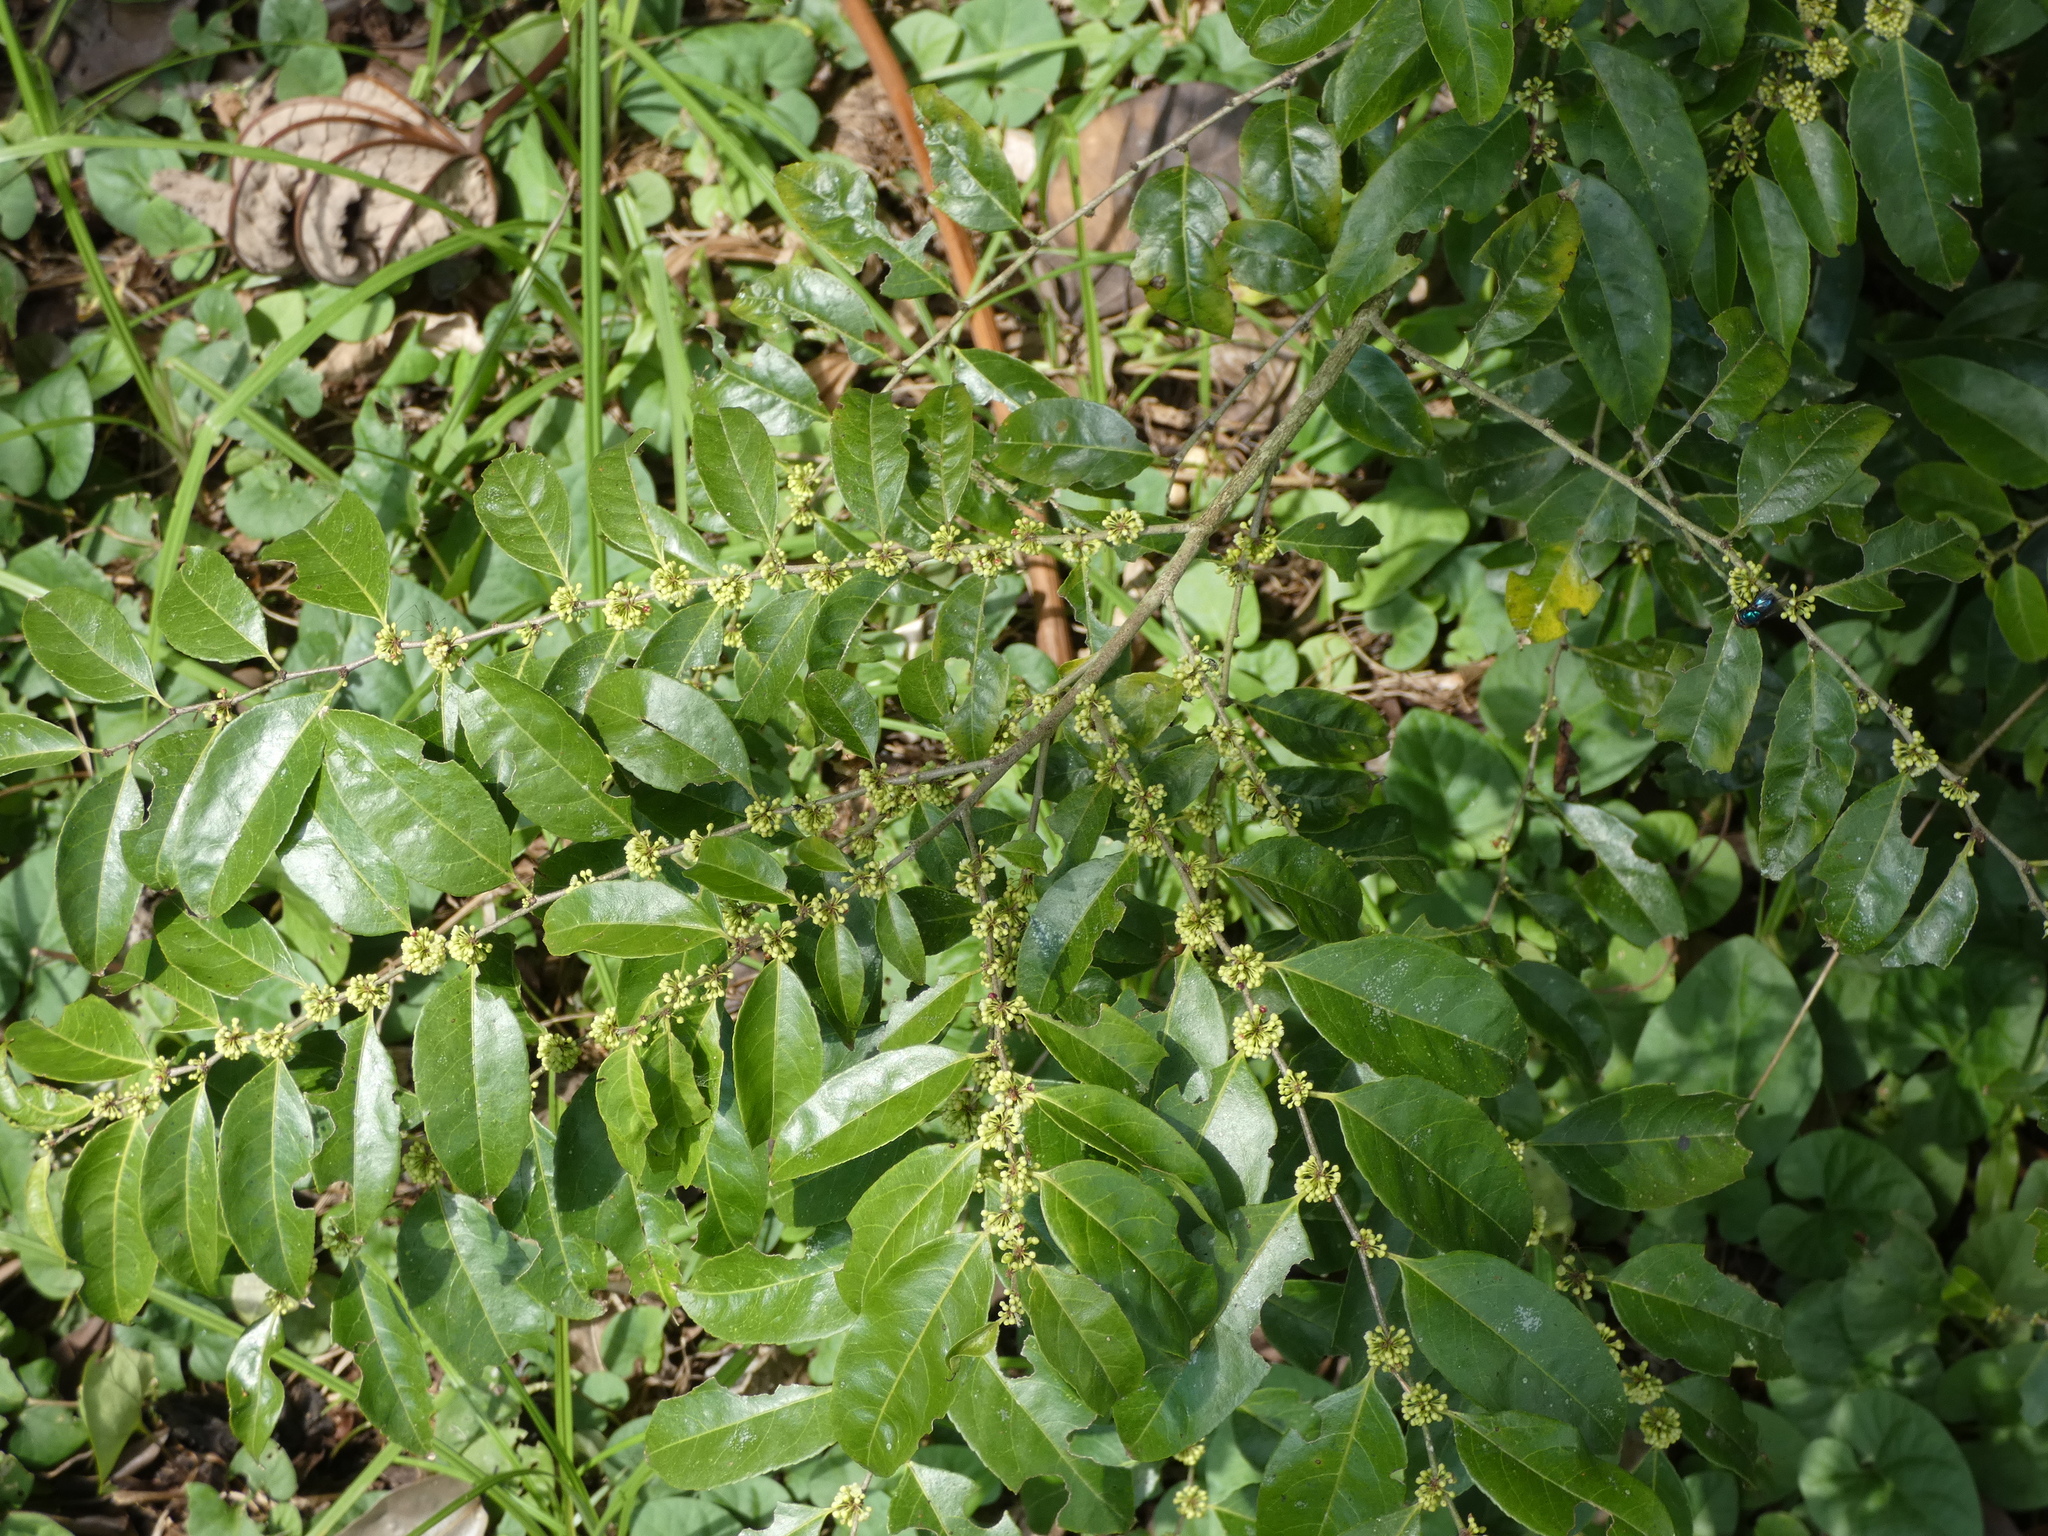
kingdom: Plantae
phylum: Tracheophyta
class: Magnoliopsida
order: Malpighiales
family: Salicaceae
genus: Casearia
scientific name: Casearia sylvestris
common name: Wild sage
